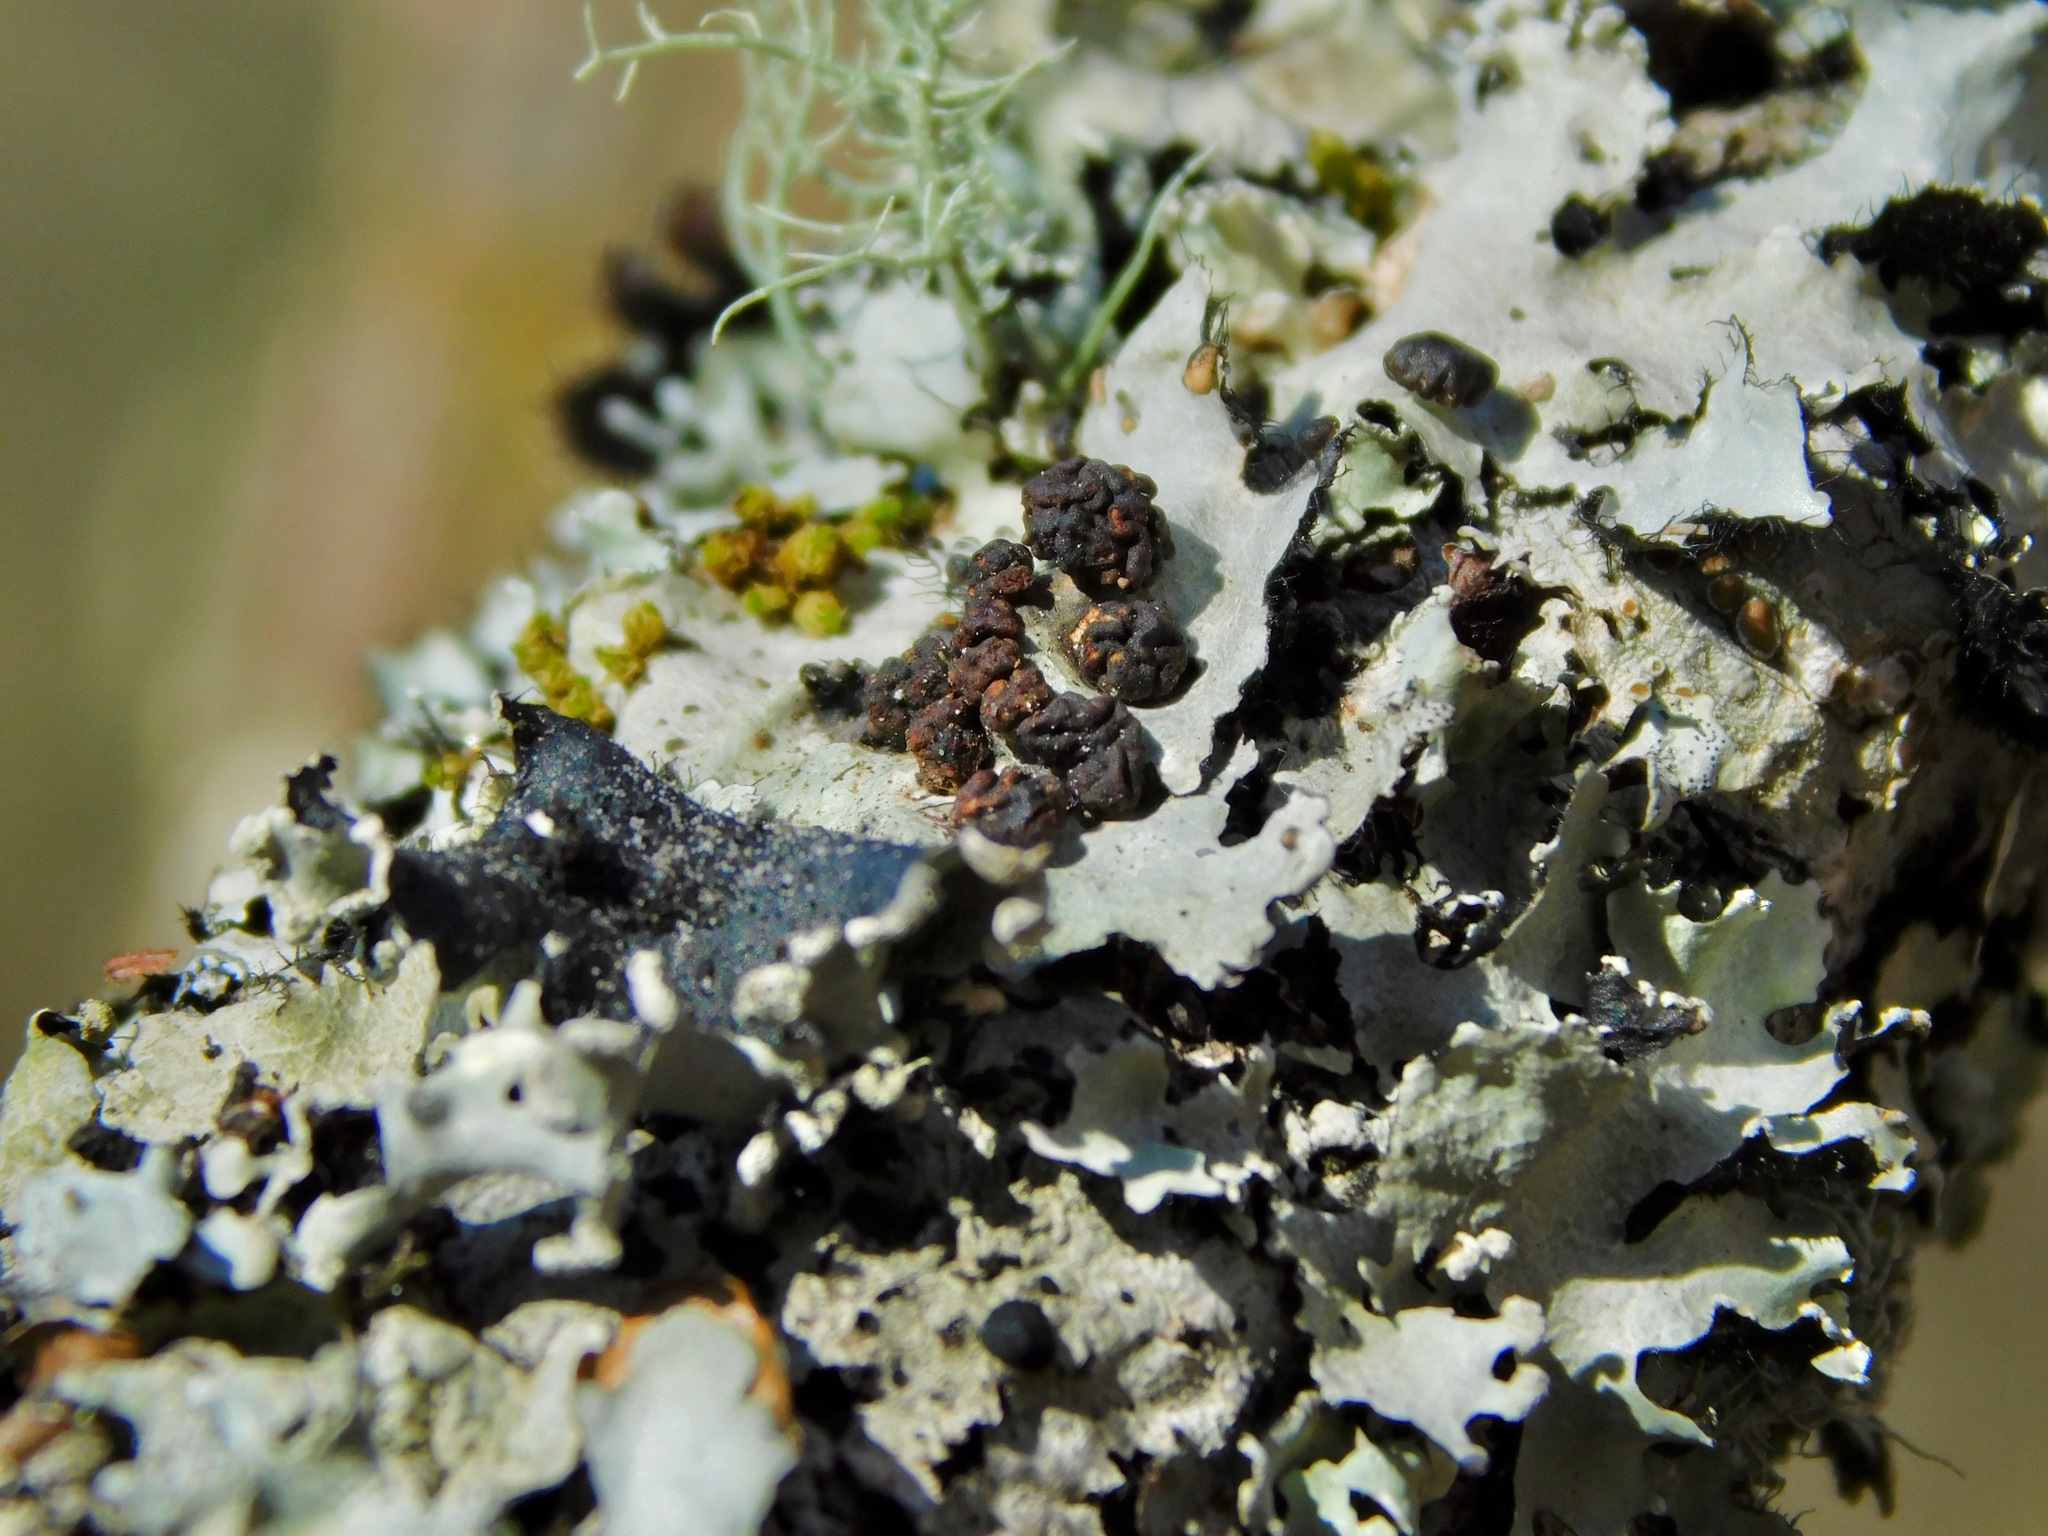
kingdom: Fungi
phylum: Basidiomycota
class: Tremellomycetes
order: Tremellales
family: Tremellaceae
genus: Tremella
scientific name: Tremella parmeliarum
